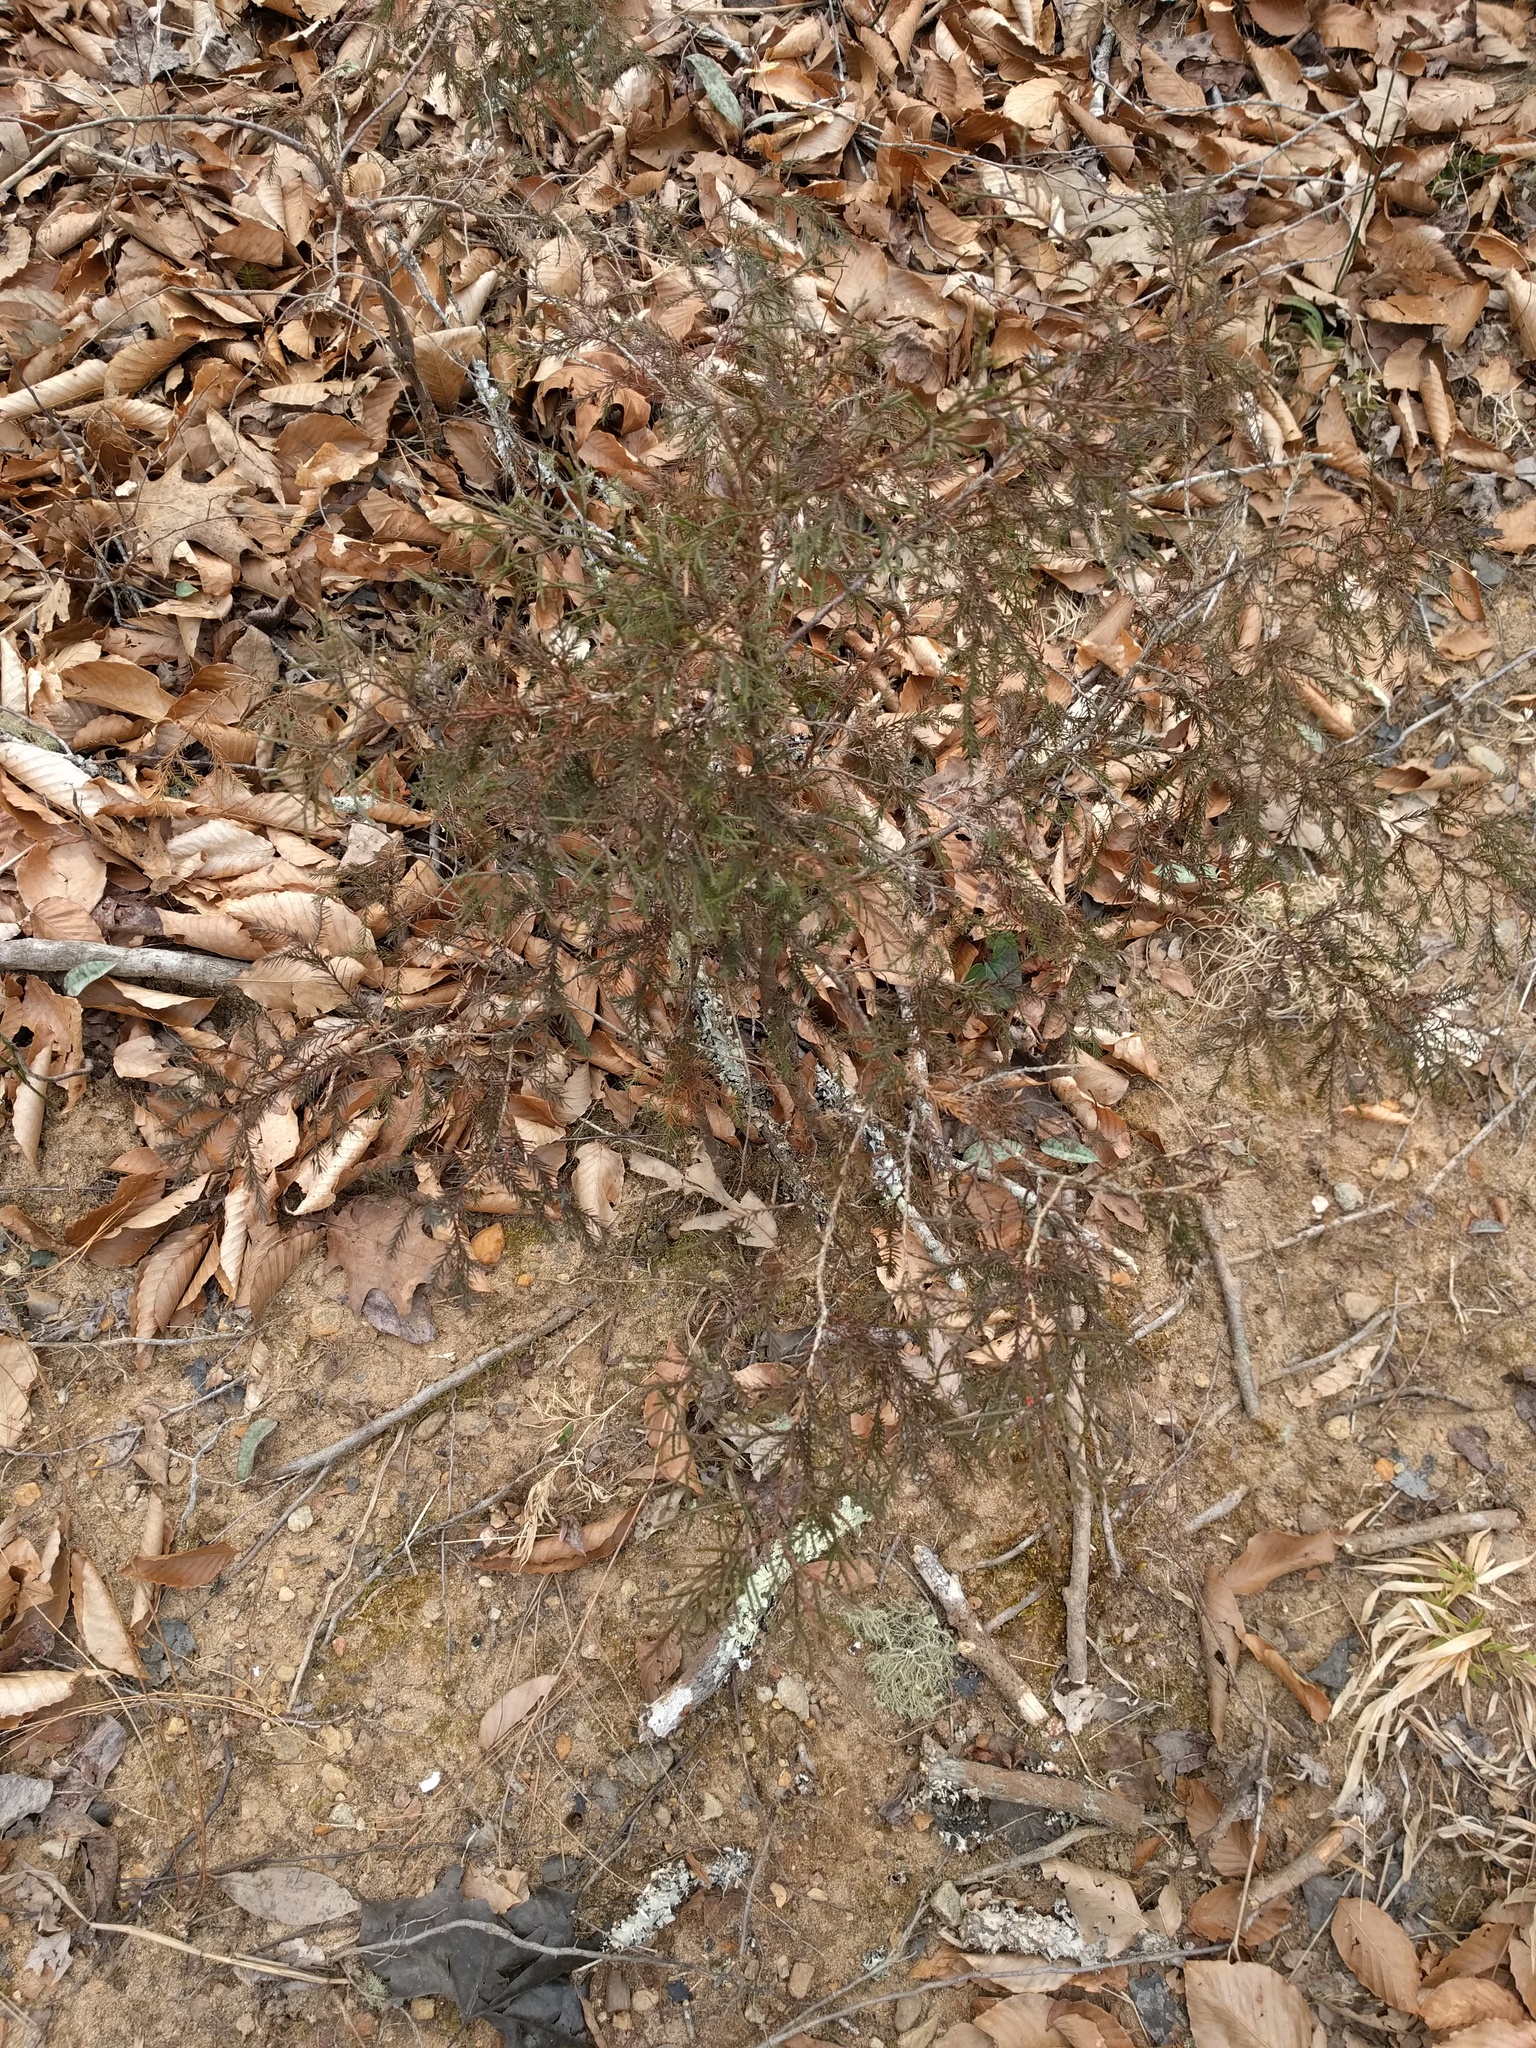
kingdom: Plantae
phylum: Tracheophyta
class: Pinopsida
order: Pinales
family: Cupressaceae
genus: Juniperus
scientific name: Juniperus virginiana
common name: Red juniper
